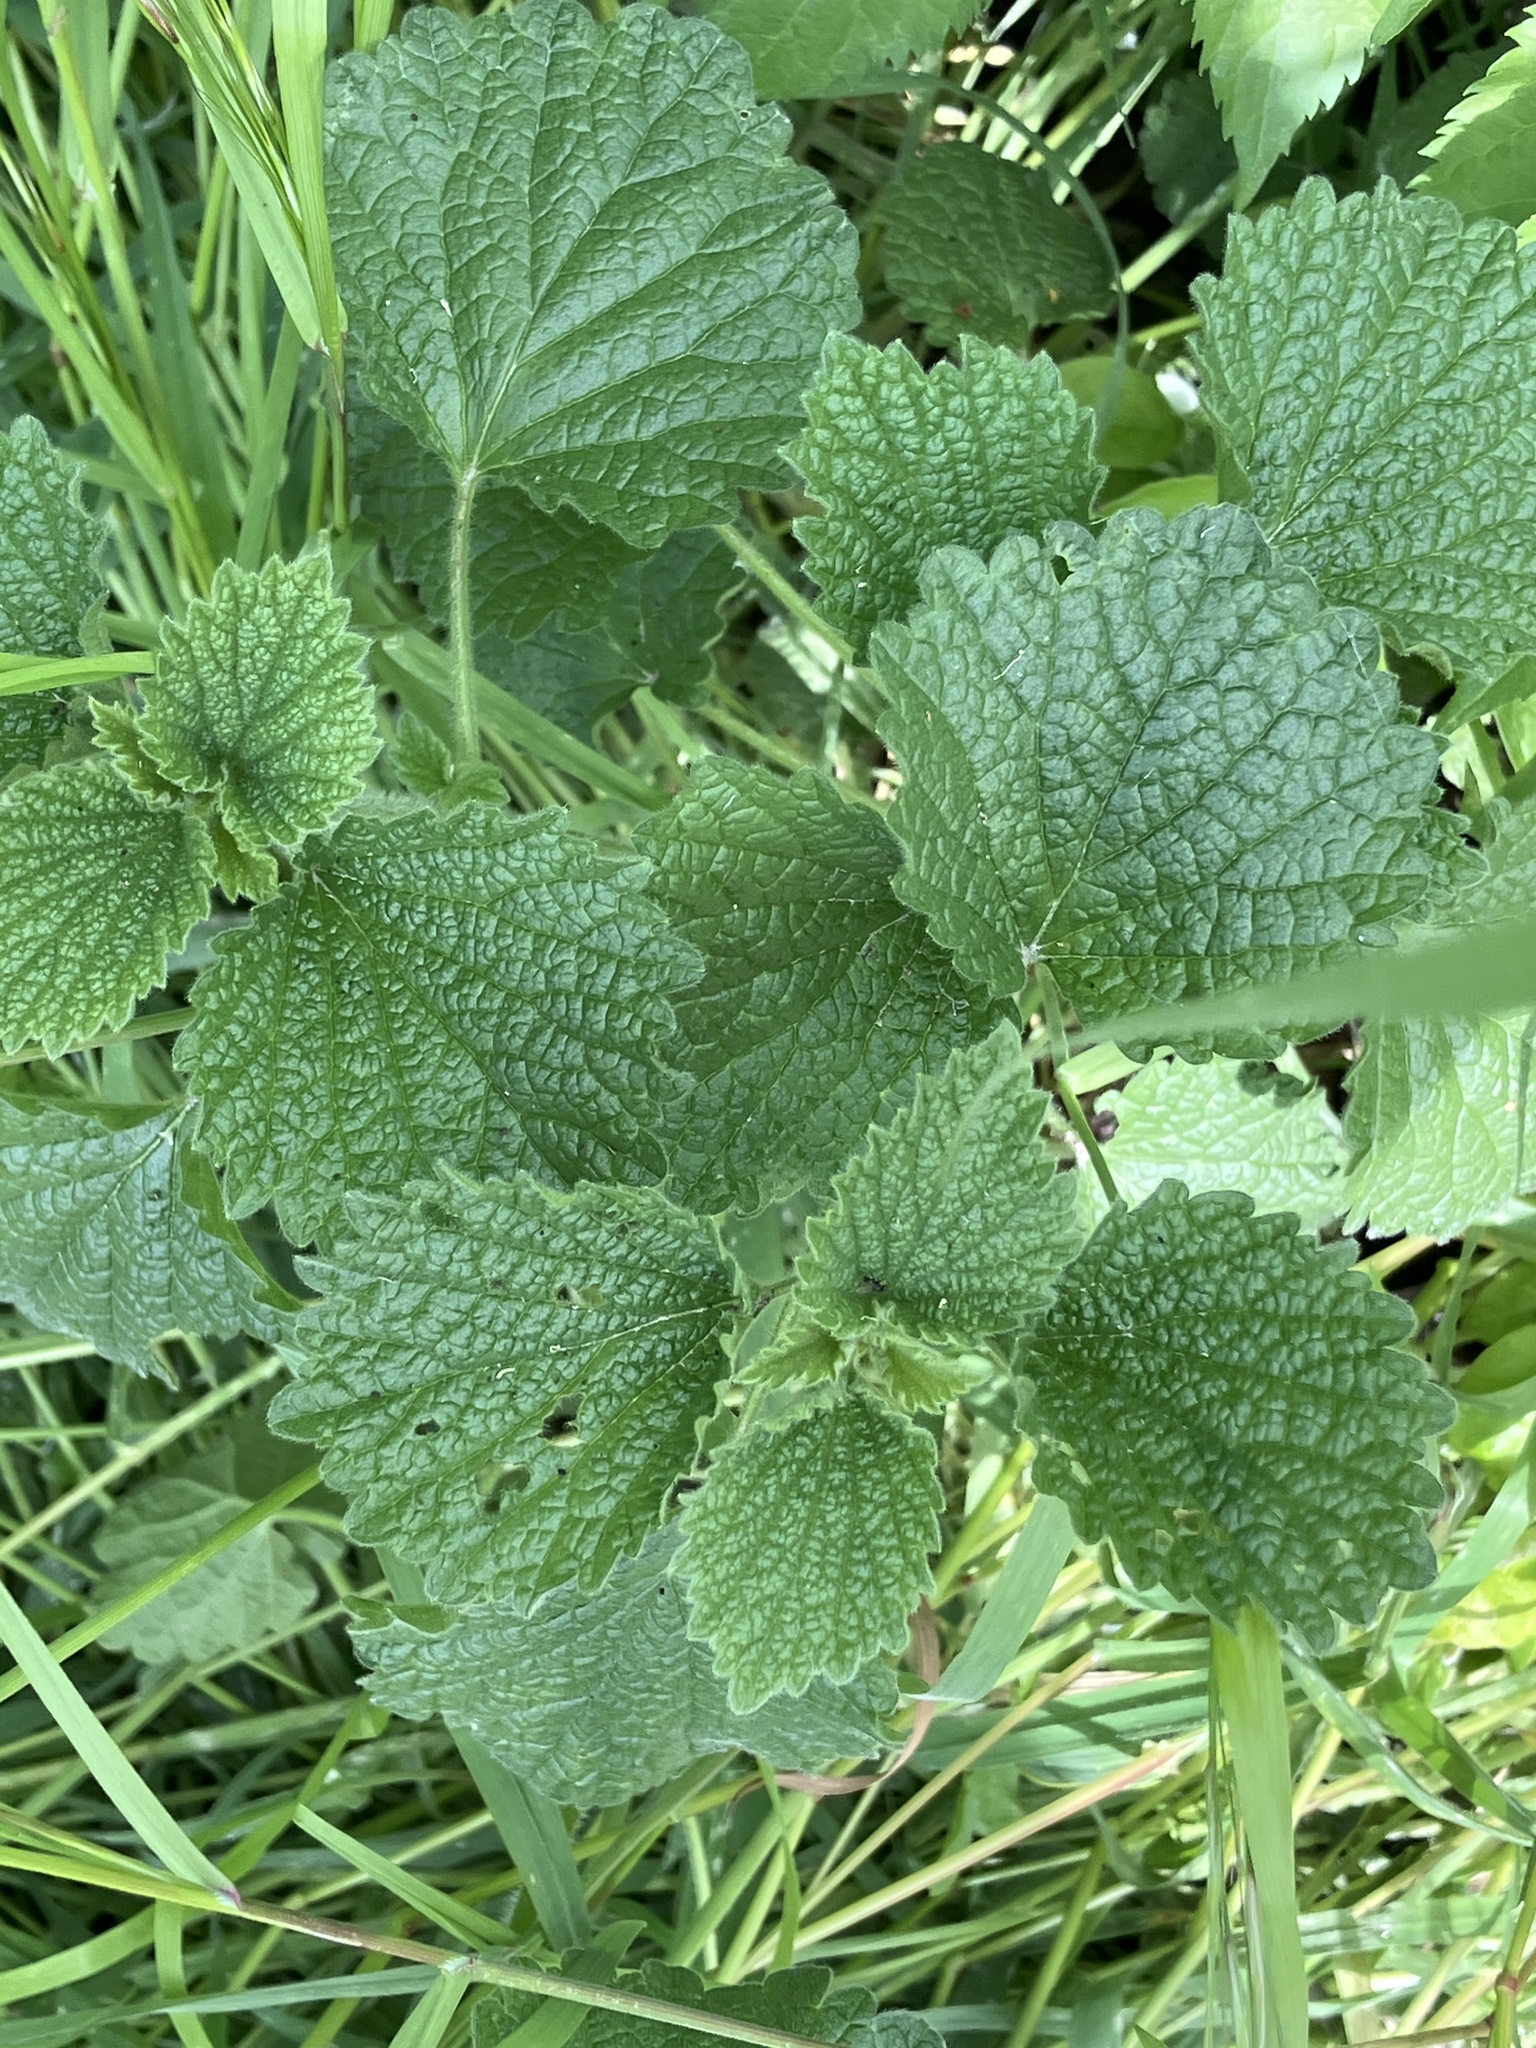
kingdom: Plantae
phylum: Tracheophyta
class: Magnoliopsida
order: Lamiales
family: Lamiaceae
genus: Ballota
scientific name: Ballota nigra
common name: Black horehound
